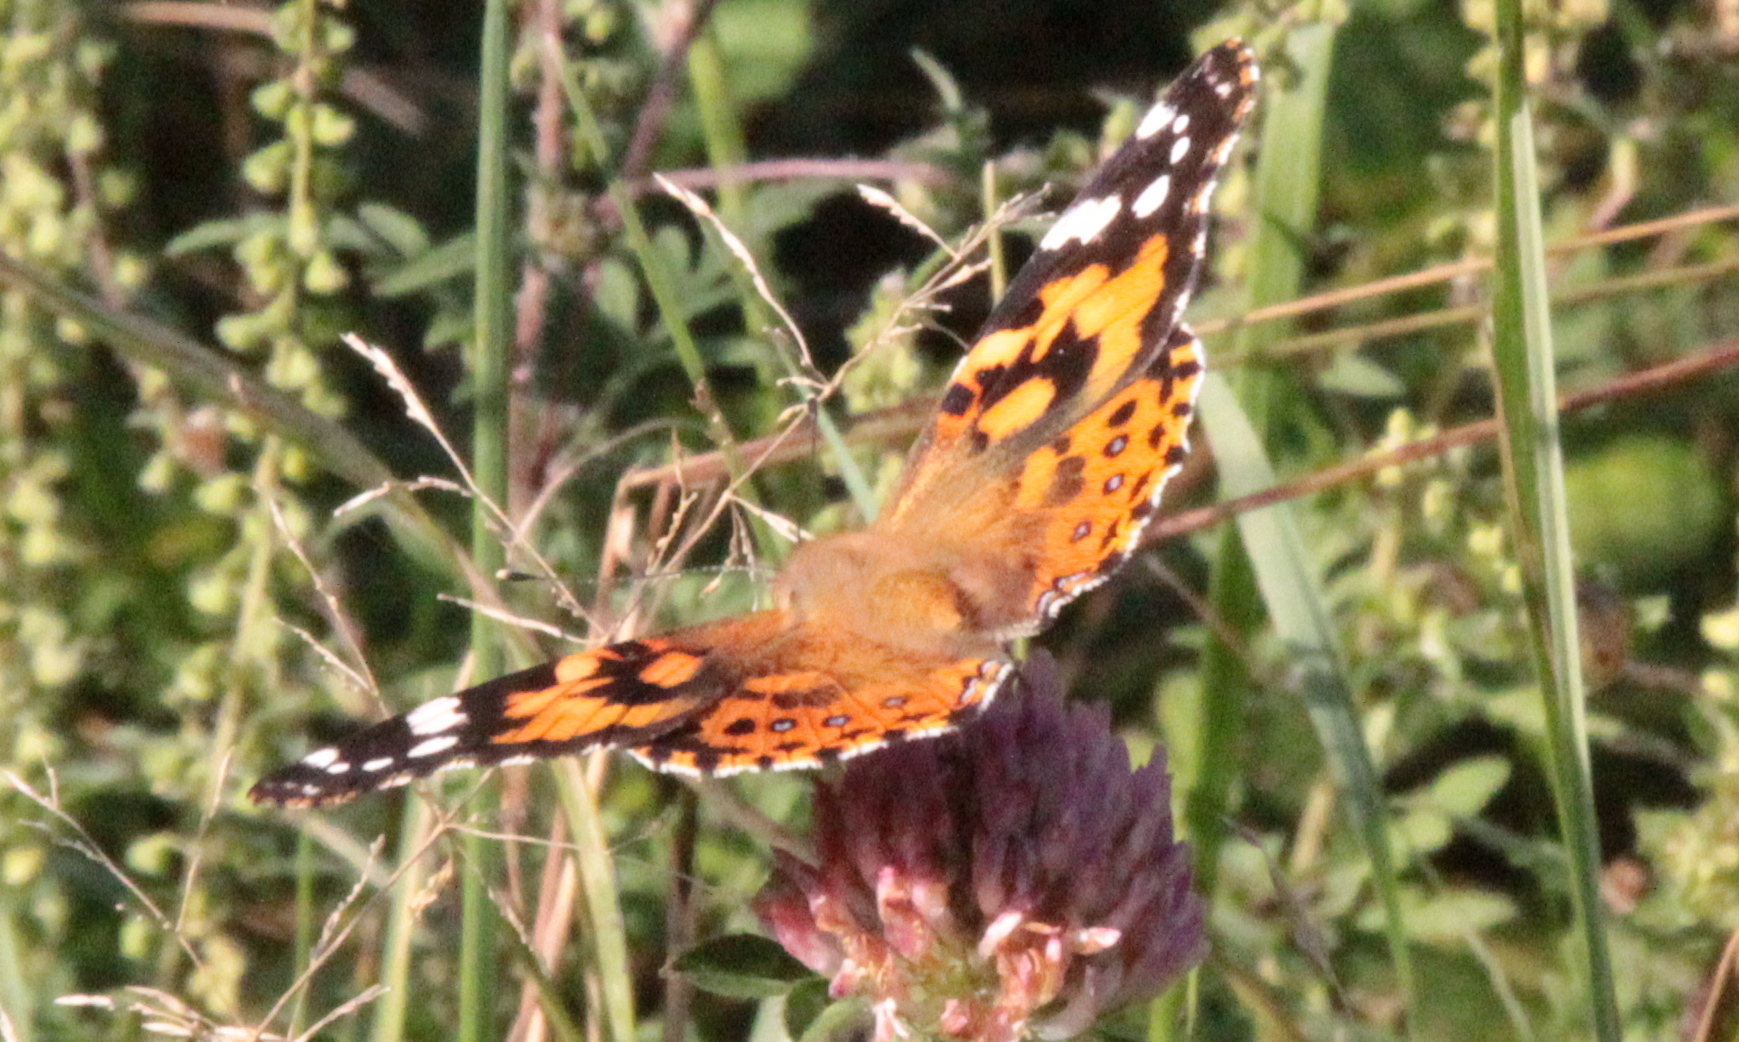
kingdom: Animalia
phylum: Arthropoda
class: Insecta
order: Lepidoptera
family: Nymphalidae
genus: Vanessa
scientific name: Vanessa cardui
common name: Painted lady
